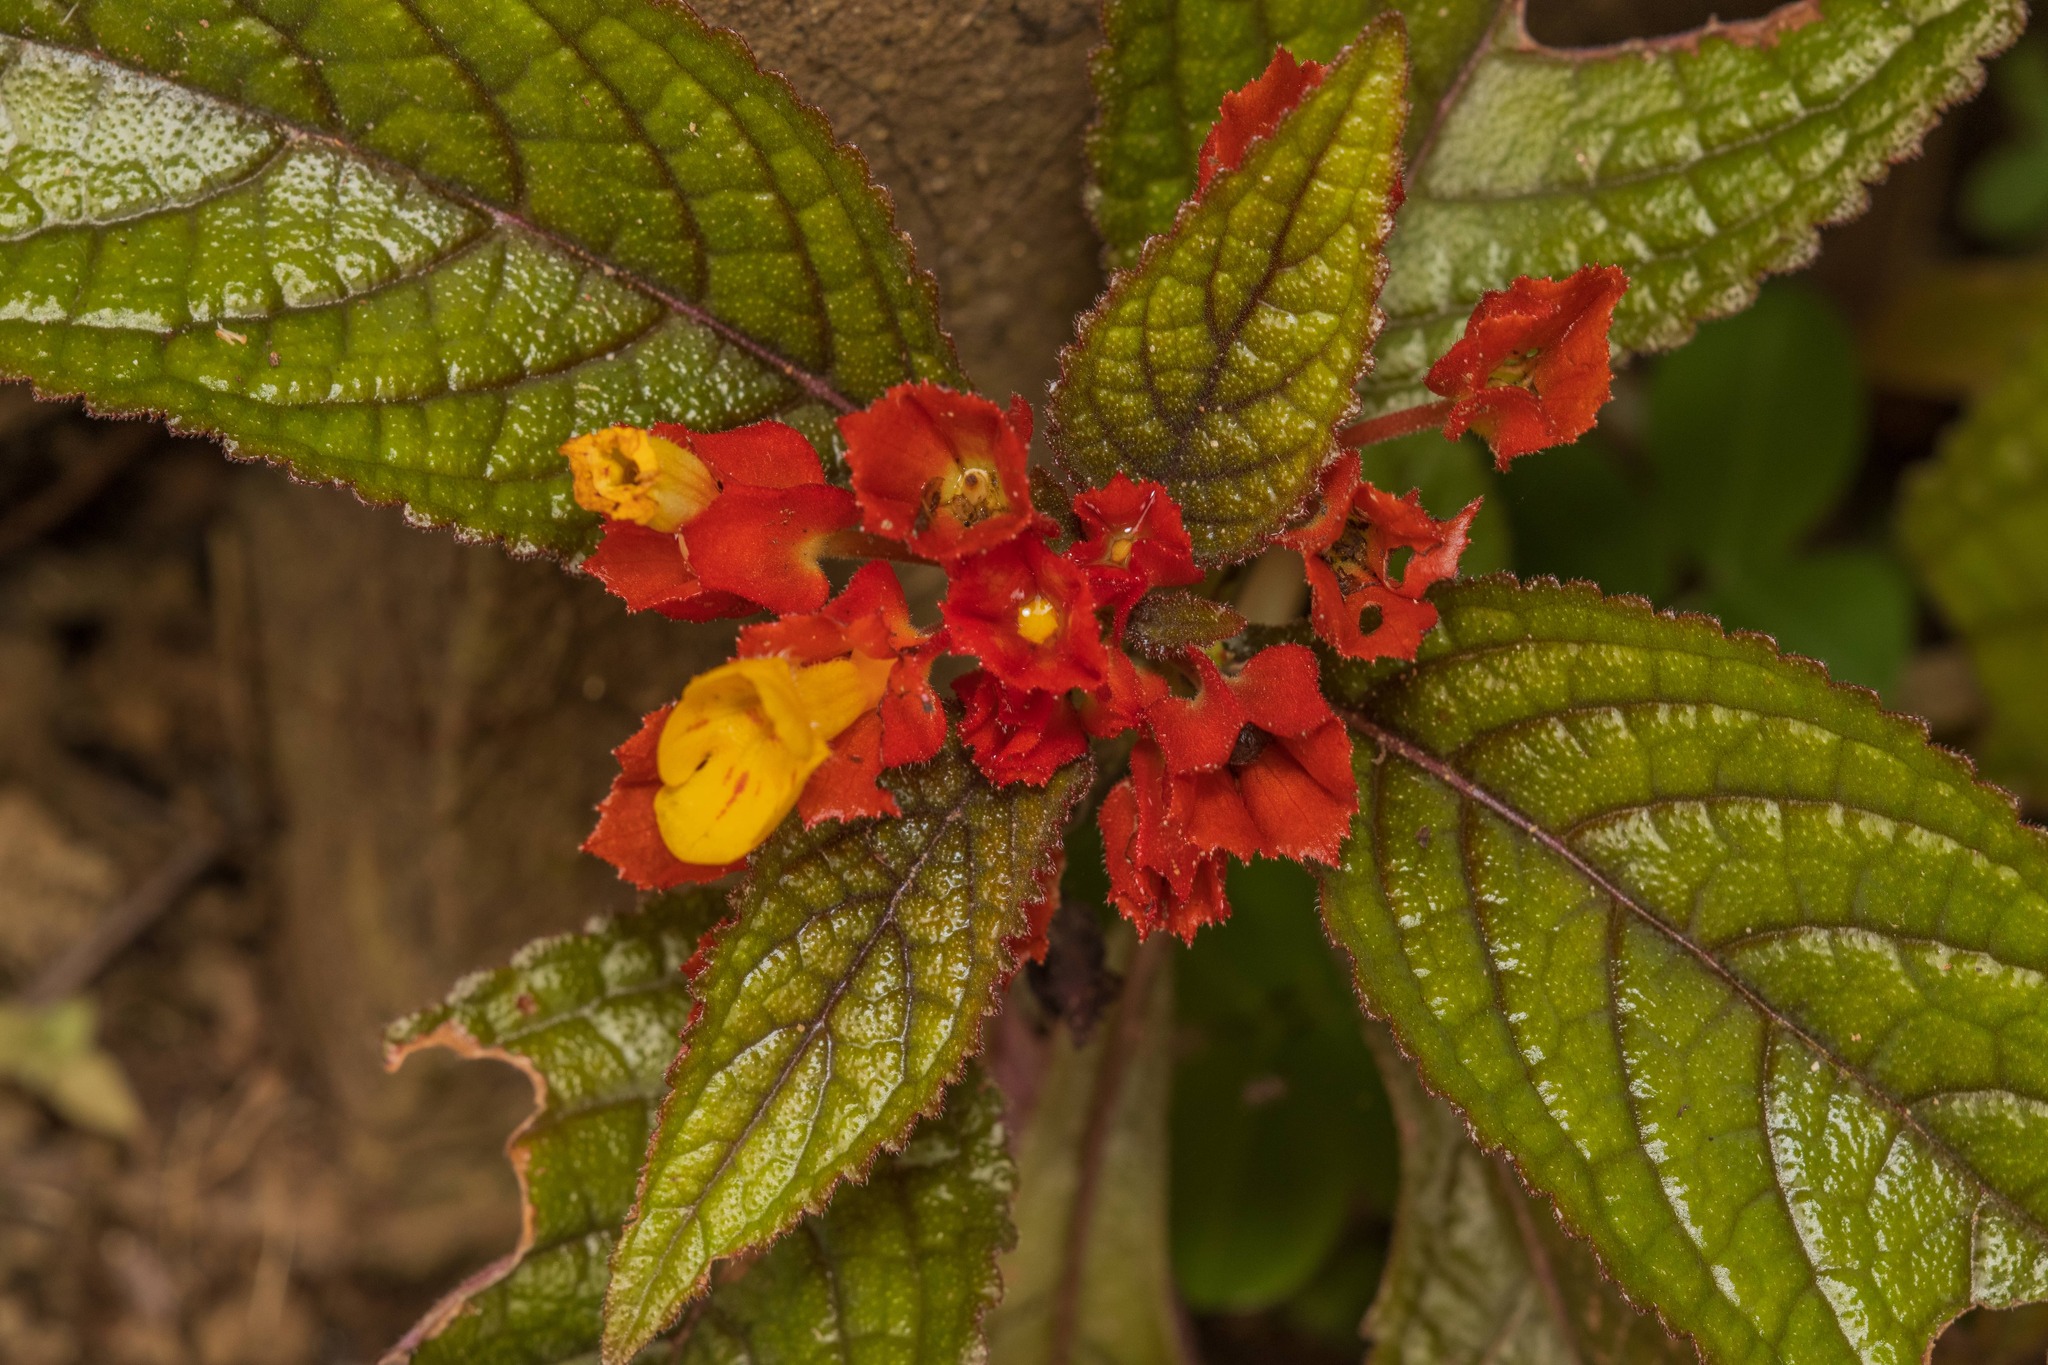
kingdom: Plantae
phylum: Tracheophyta
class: Magnoliopsida
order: Lamiales
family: Gesneriaceae
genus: Chrysothemis
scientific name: Chrysothemis pulchella
